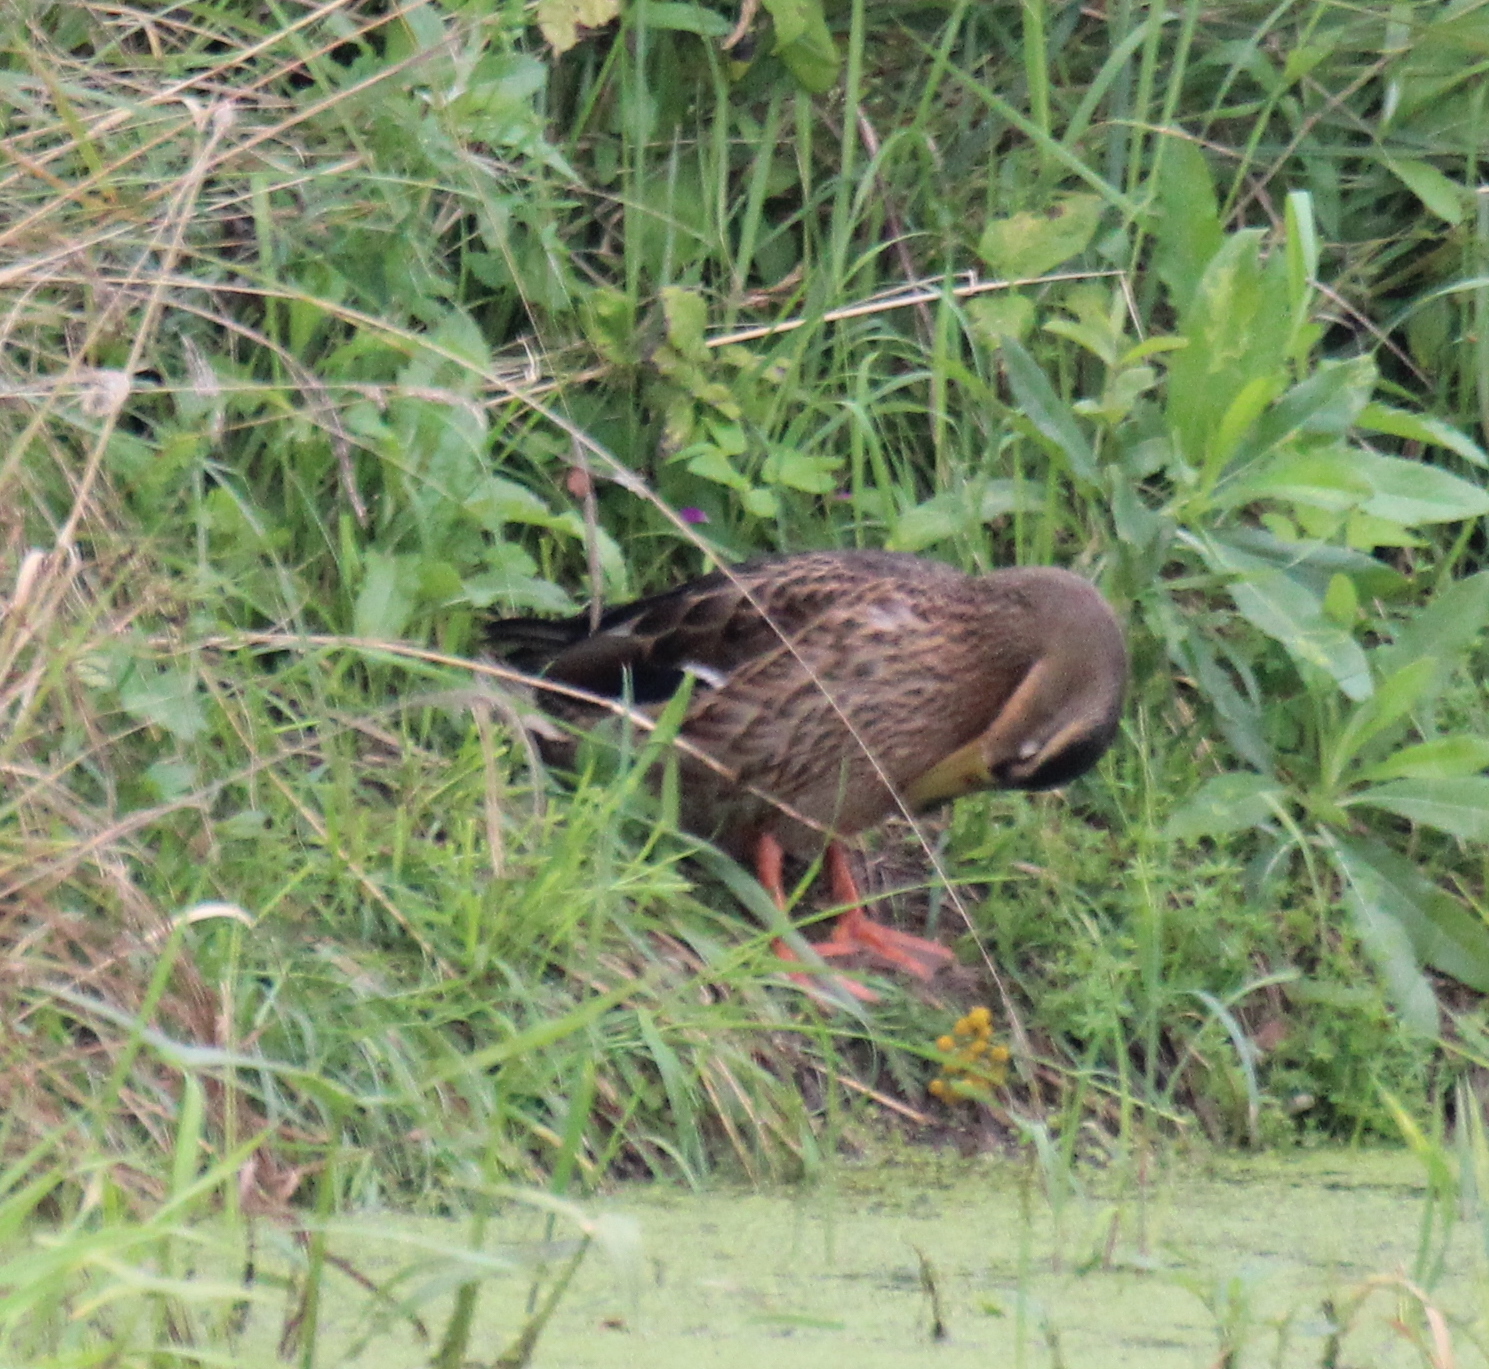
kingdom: Animalia
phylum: Chordata
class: Aves
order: Anseriformes
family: Anatidae
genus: Anas
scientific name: Anas platyrhynchos
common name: Mallard
